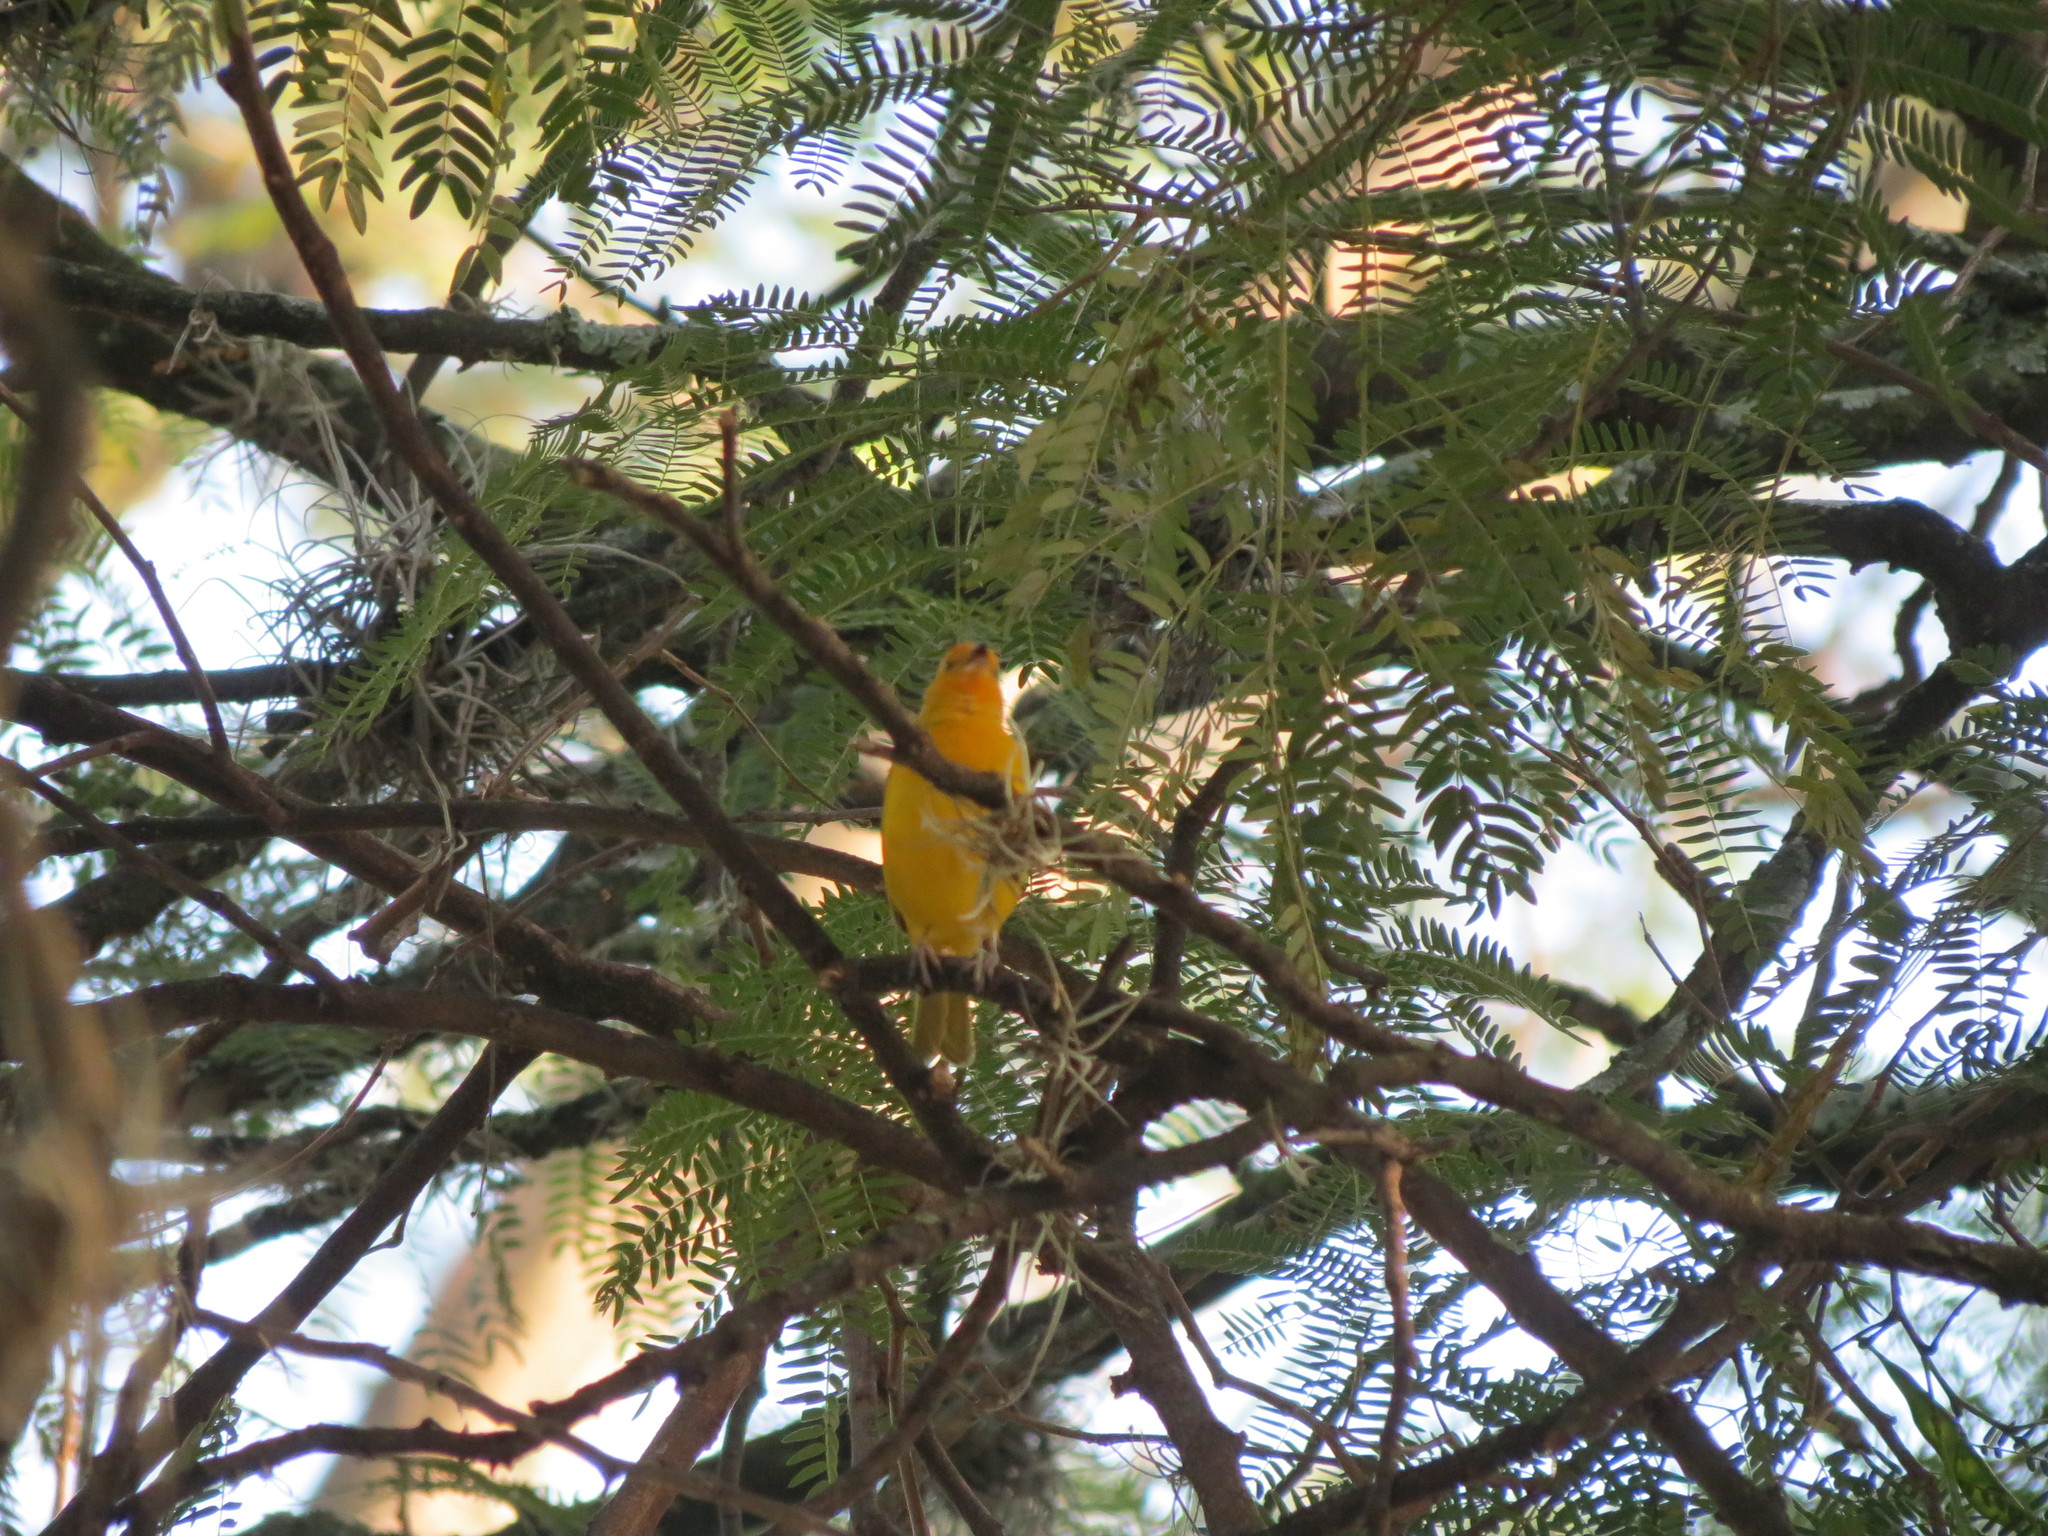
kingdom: Animalia
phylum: Chordata
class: Aves
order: Passeriformes
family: Thraupidae
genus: Sicalis
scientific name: Sicalis flaveola
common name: Saffron finch
